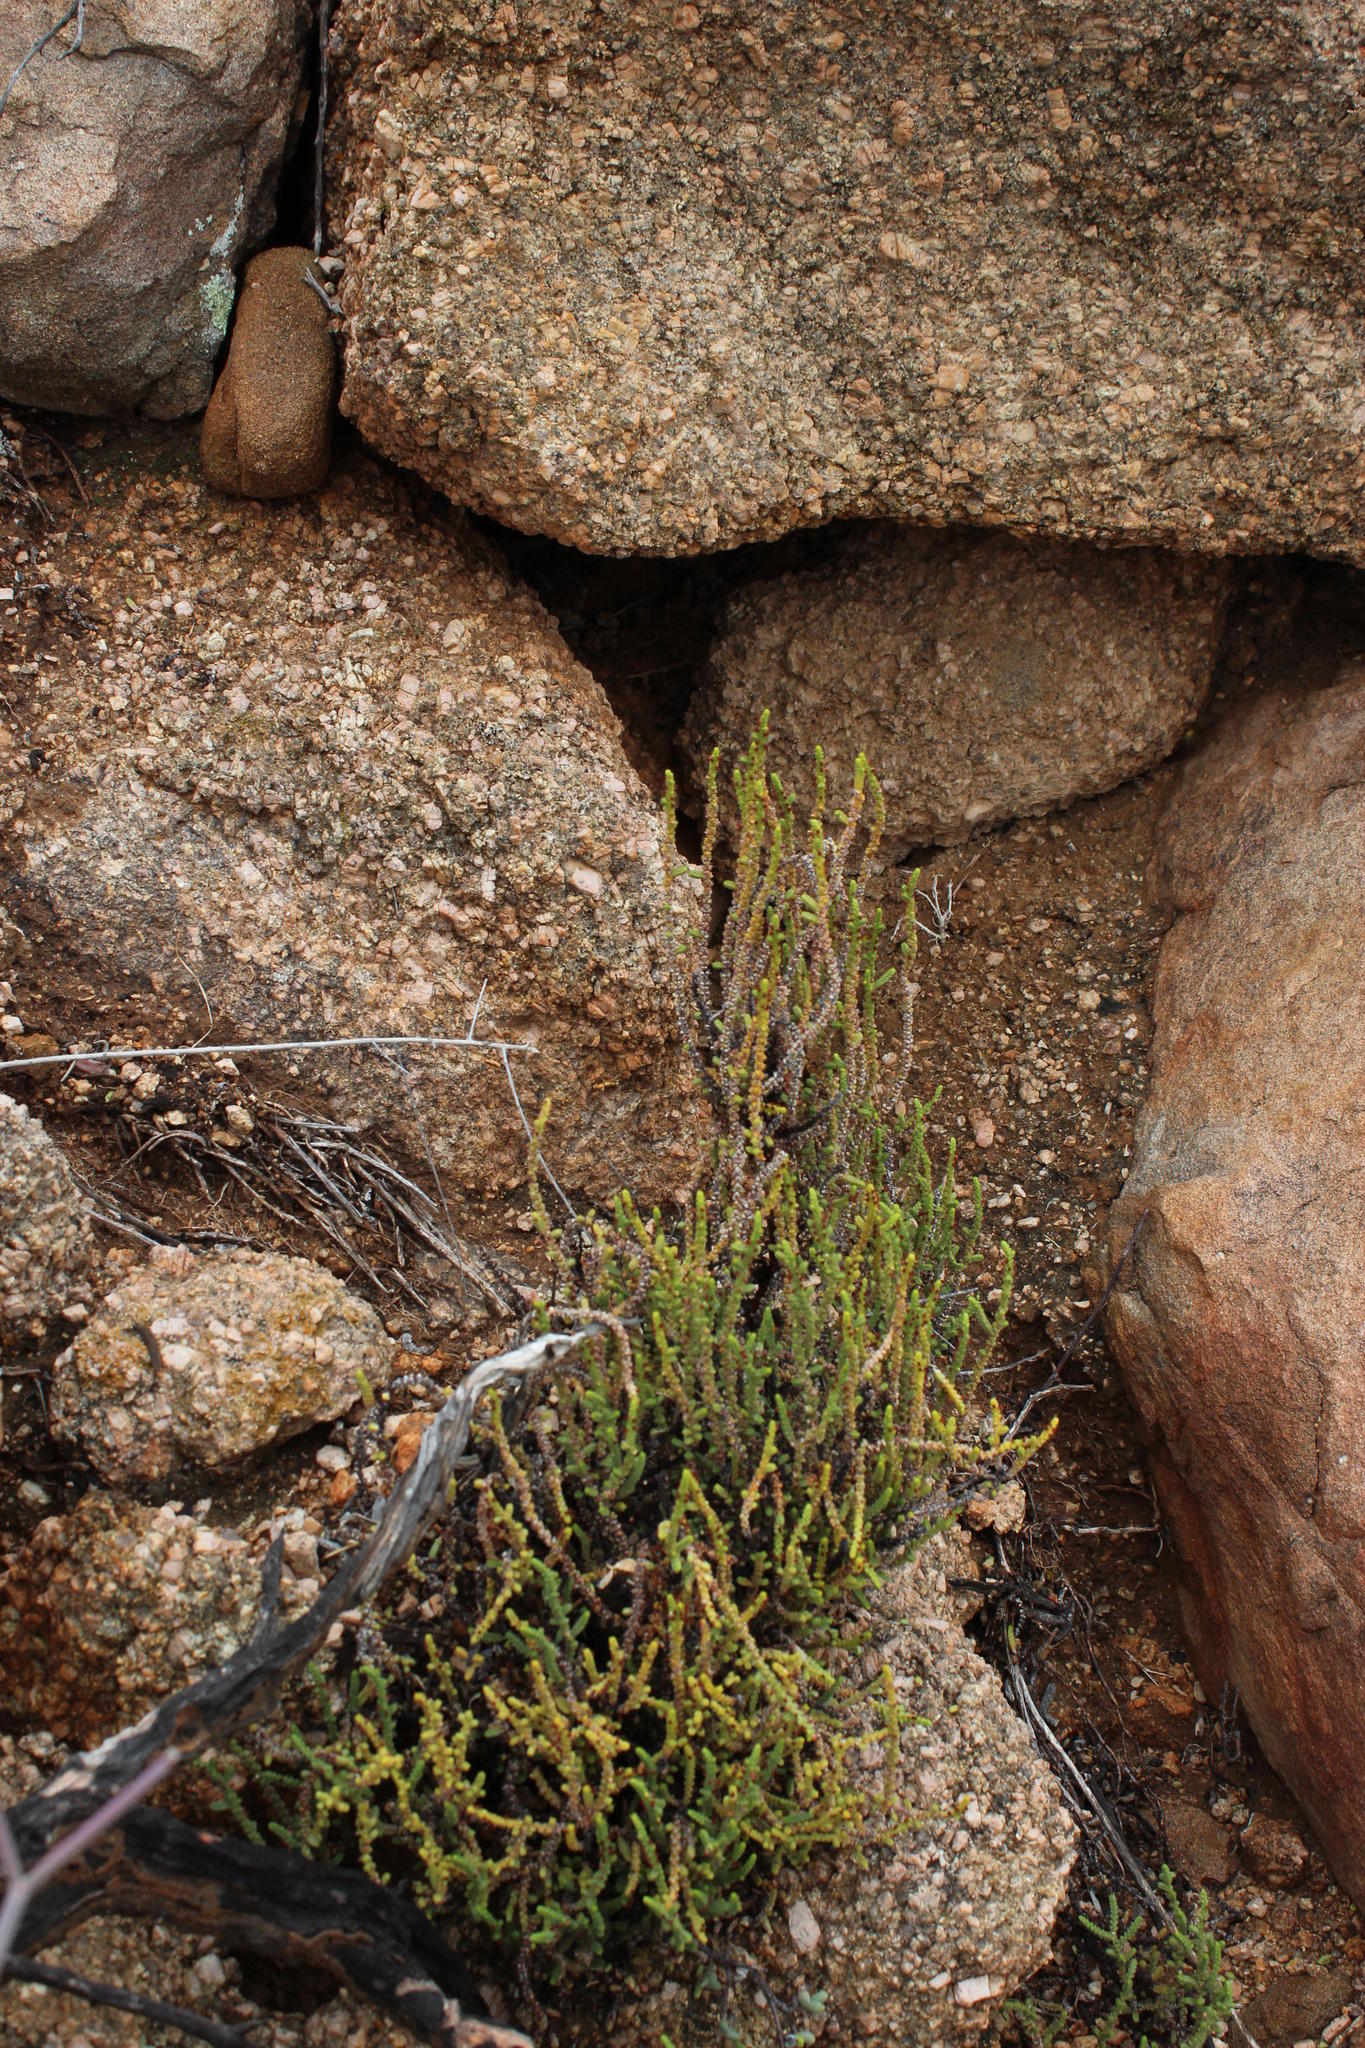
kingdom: Plantae
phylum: Tracheophyta
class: Magnoliopsida
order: Saxifragales
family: Crassulaceae
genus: Crassula
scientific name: Crassula muscosa
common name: Toy-cypress
